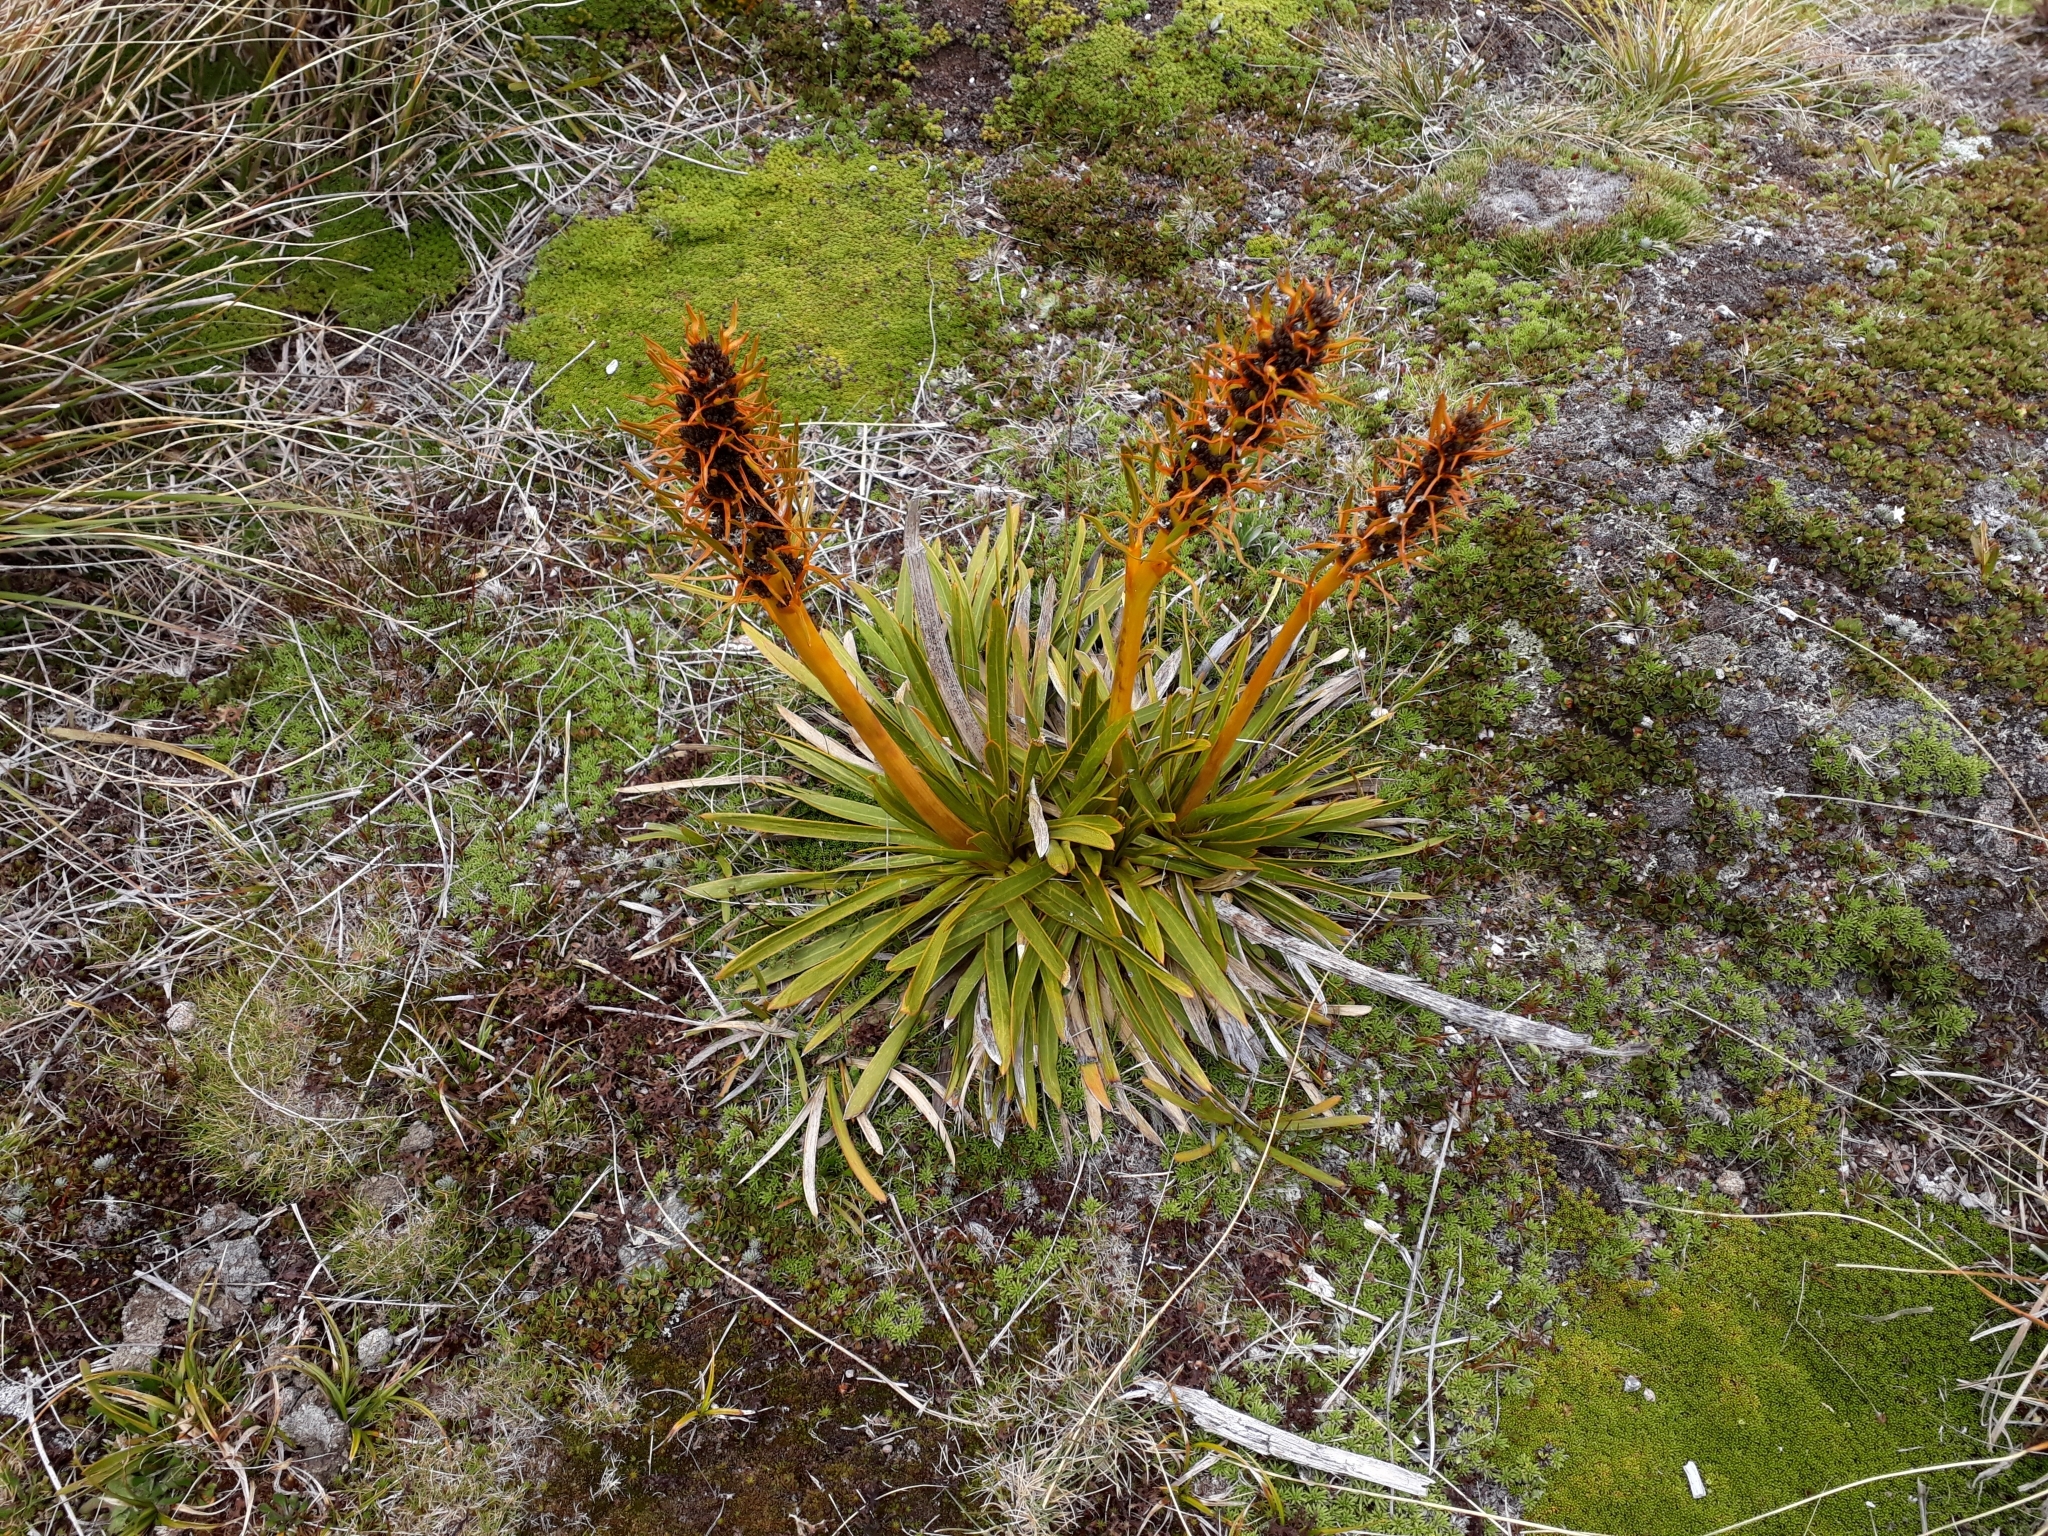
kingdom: Plantae
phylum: Tracheophyta
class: Magnoliopsida
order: Apiales
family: Apiaceae
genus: Aciphylla
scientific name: Aciphylla kirkii
